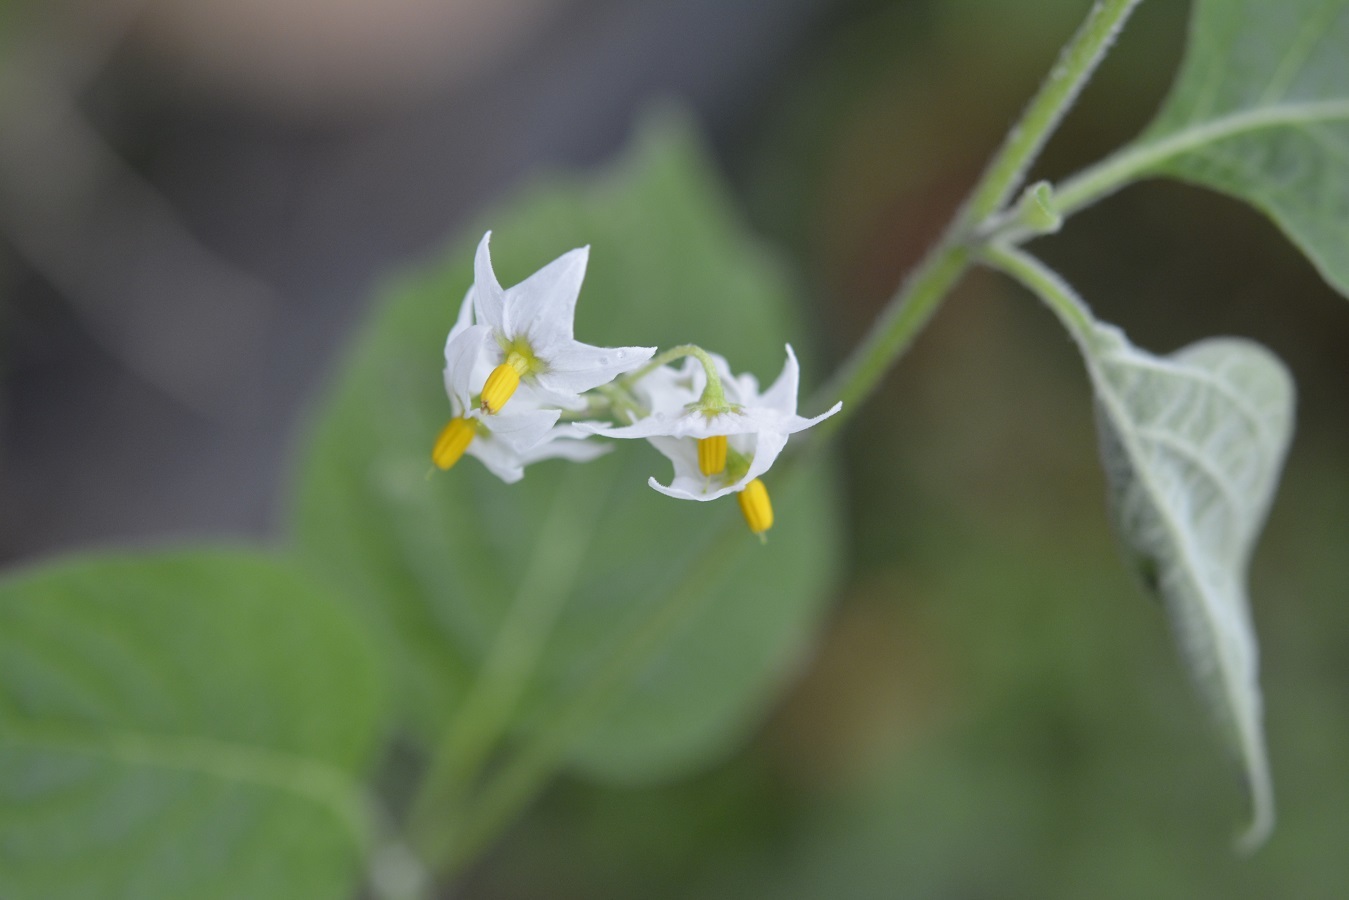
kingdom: Plantae
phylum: Tracheophyta
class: Magnoliopsida
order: Solanales
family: Solanaceae
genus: Solanum
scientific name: Solanum americanum
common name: American black nightshade
